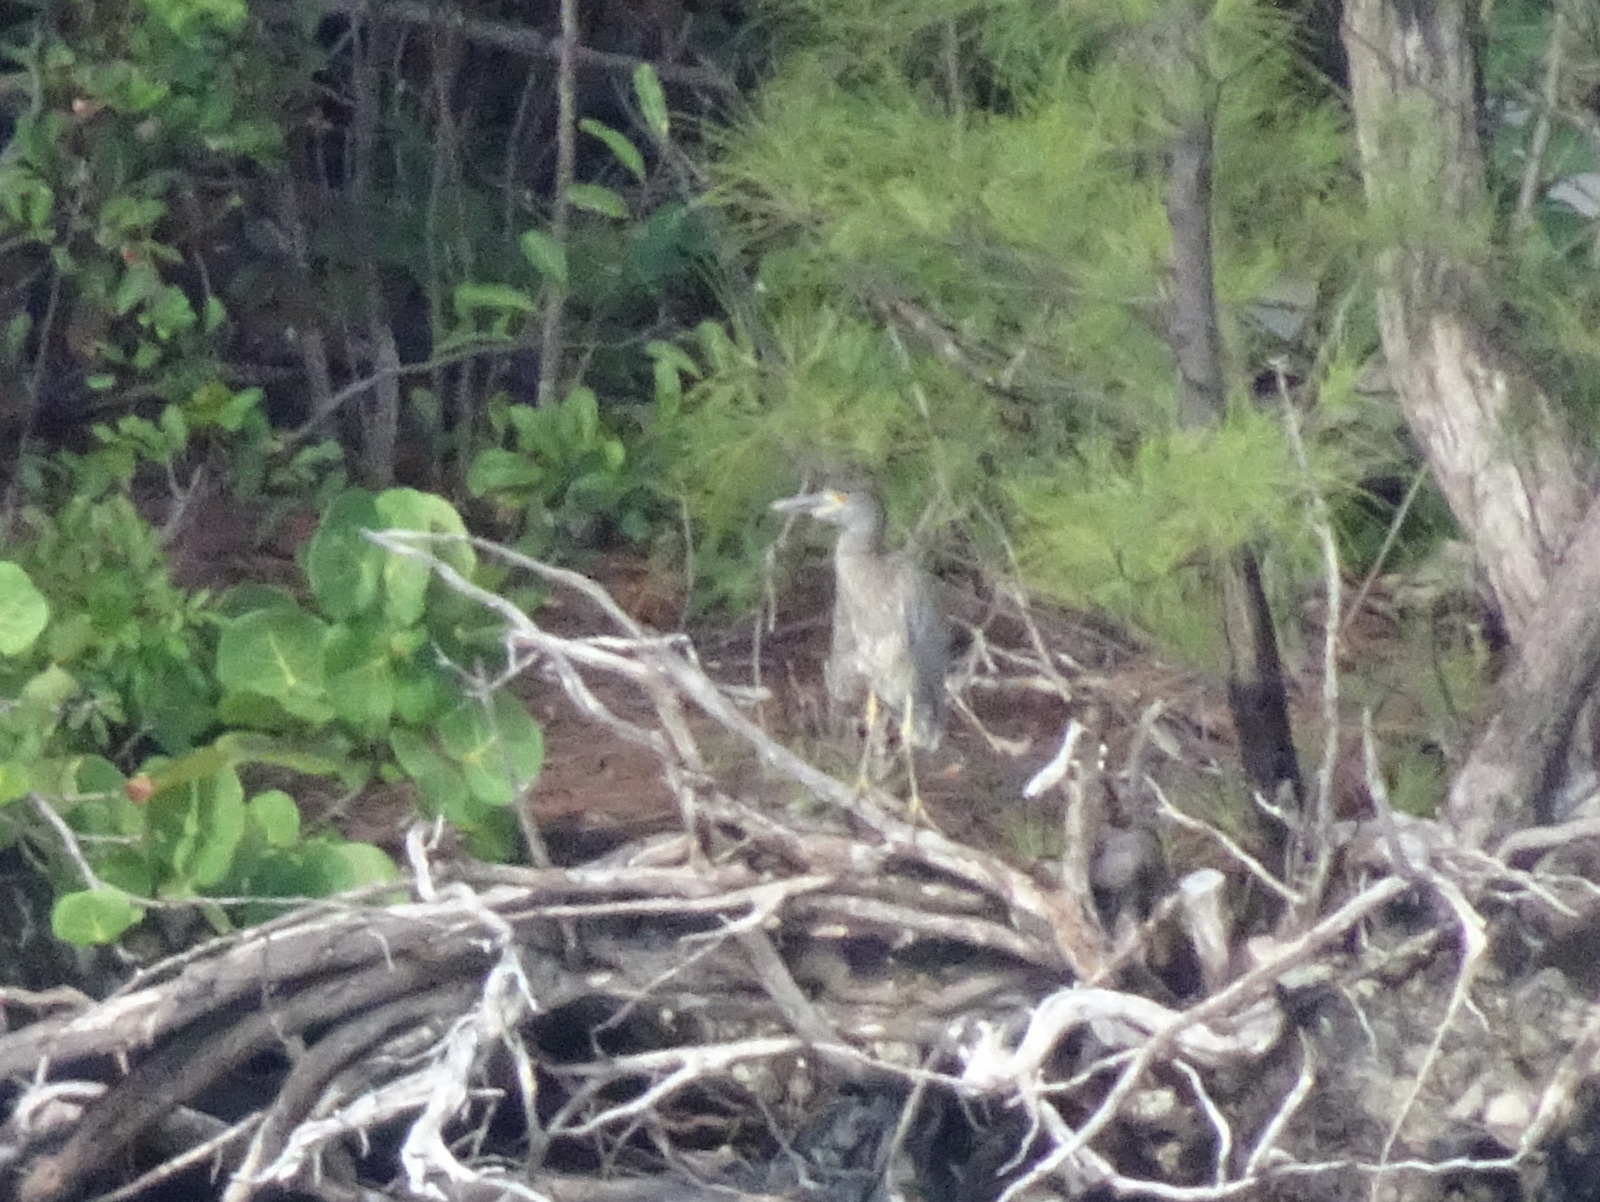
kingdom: Animalia
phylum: Chordata
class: Aves
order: Pelecaniformes
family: Ardeidae
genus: Nyctanassa
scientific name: Nyctanassa violacea
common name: Yellow-crowned night heron
